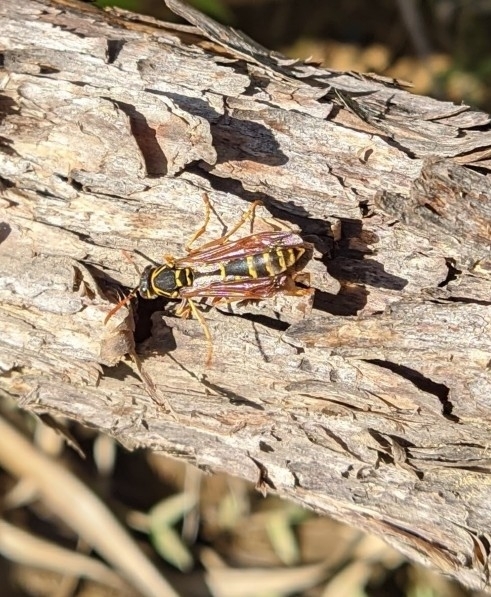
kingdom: Animalia
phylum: Arthropoda
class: Insecta
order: Hymenoptera
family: Eumenidae
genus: Polistes
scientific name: Polistes chinensis
